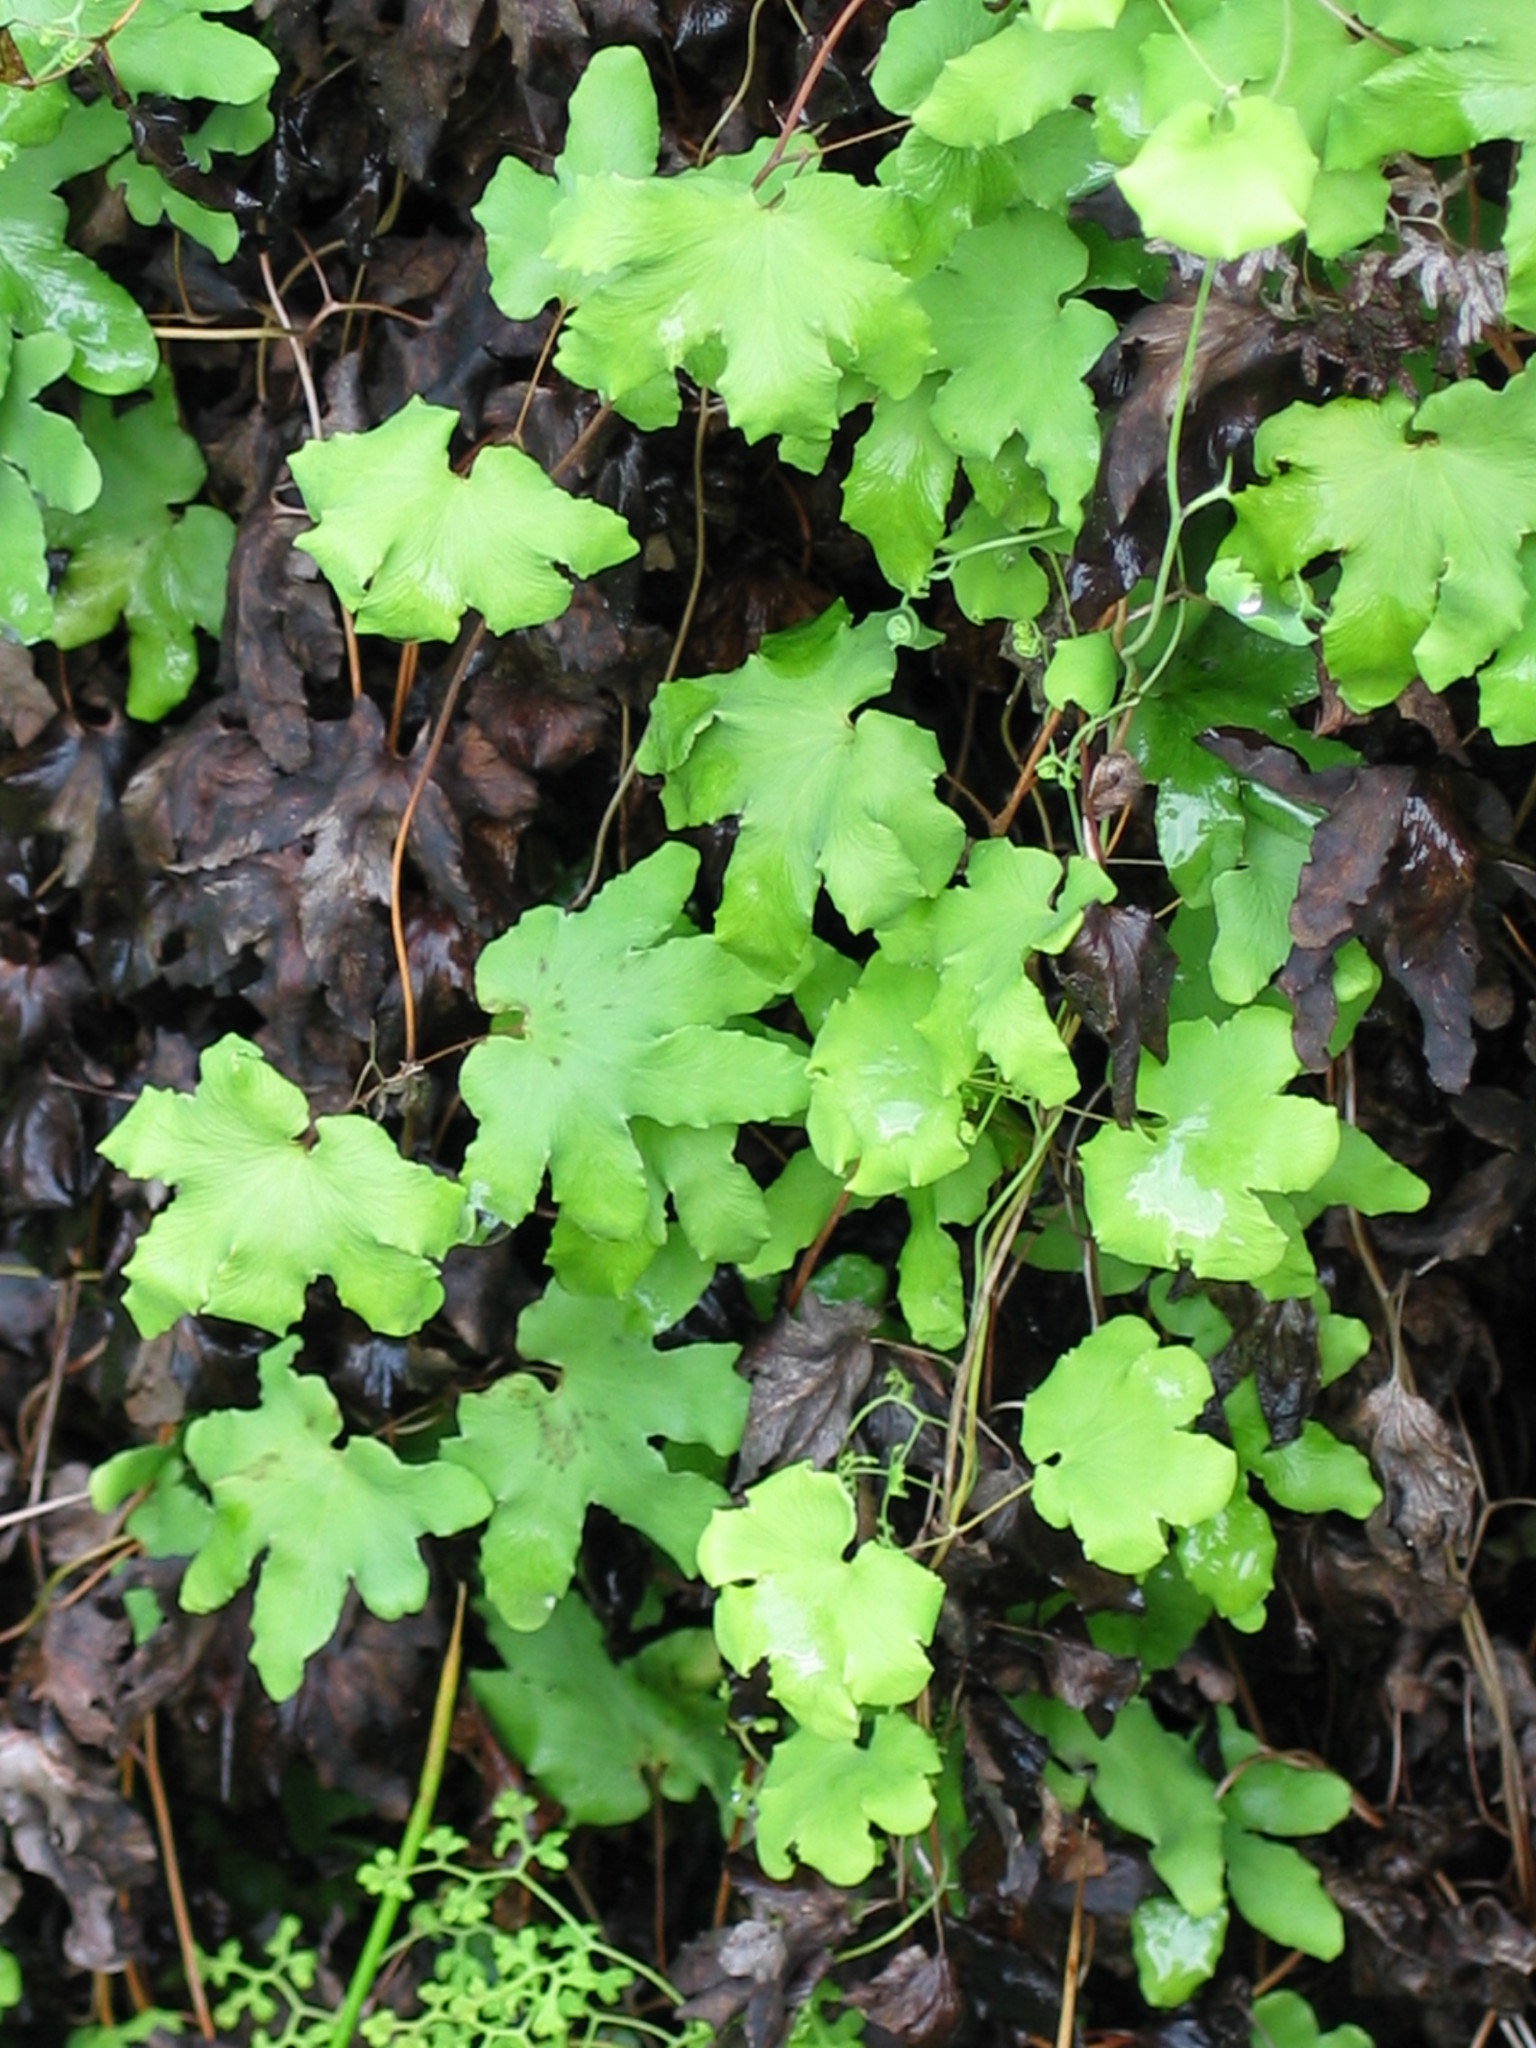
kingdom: Plantae
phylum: Tracheophyta
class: Polypodiopsida
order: Schizaeales
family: Lygodiaceae
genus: Lygodium
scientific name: Lygodium palmatum
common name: American climbing fern
